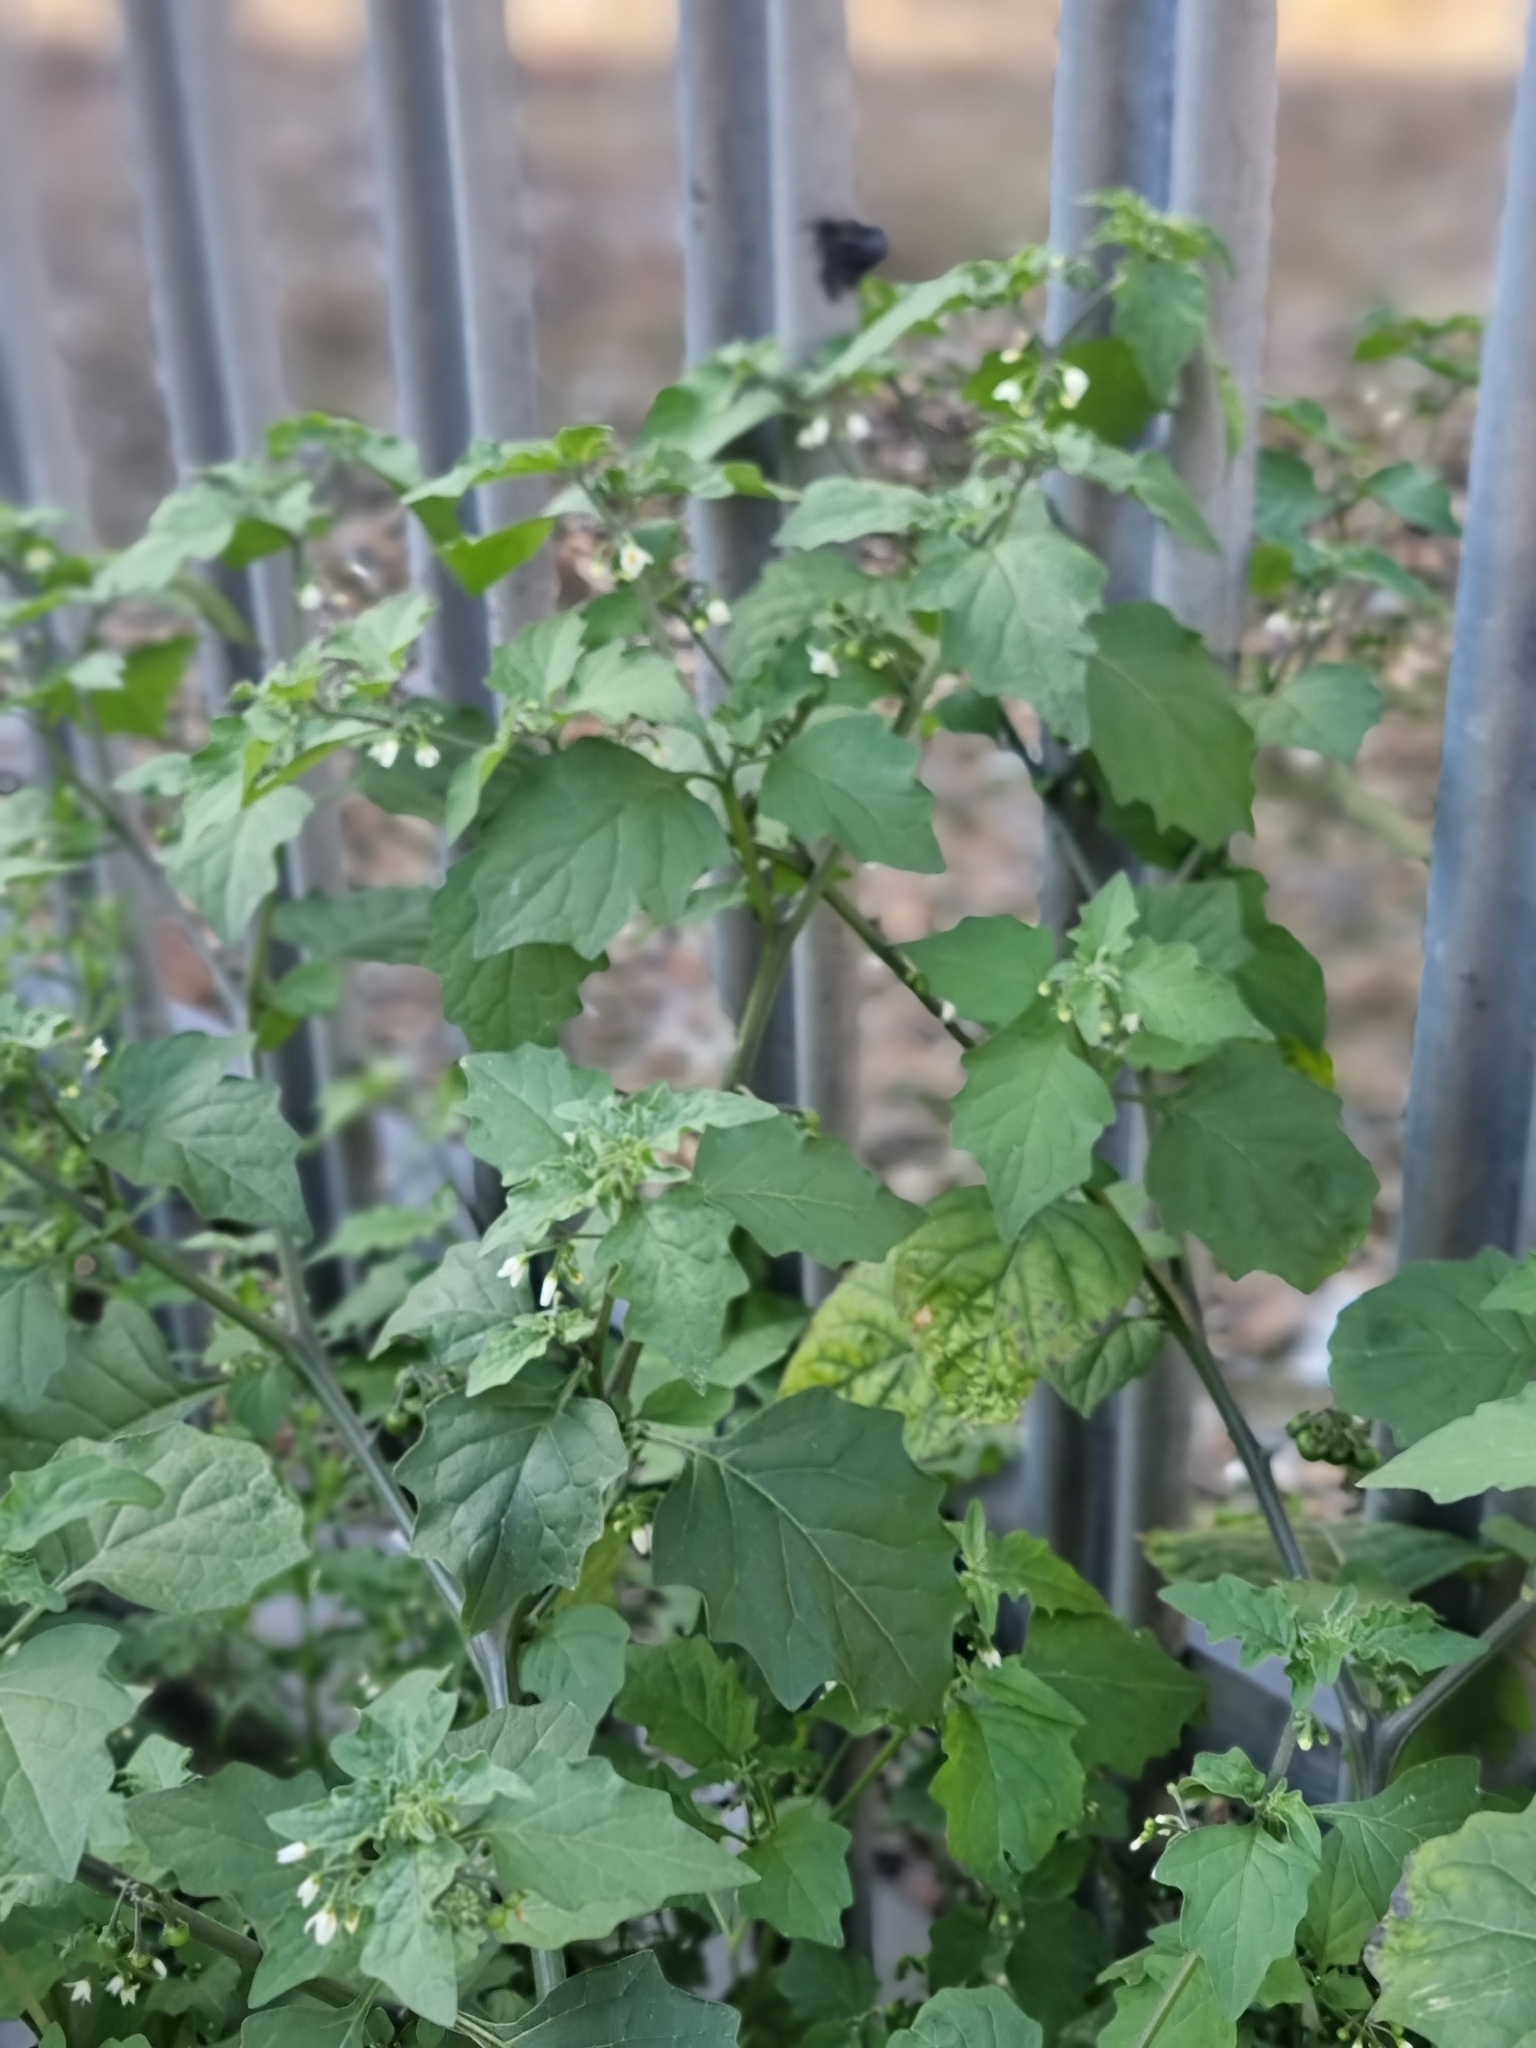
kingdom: Plantae
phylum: Tracheophyta
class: Magnoliopsida
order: Solanales
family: Solanaceae
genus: Solanum
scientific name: Solanum nigrum
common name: Black nightshade
